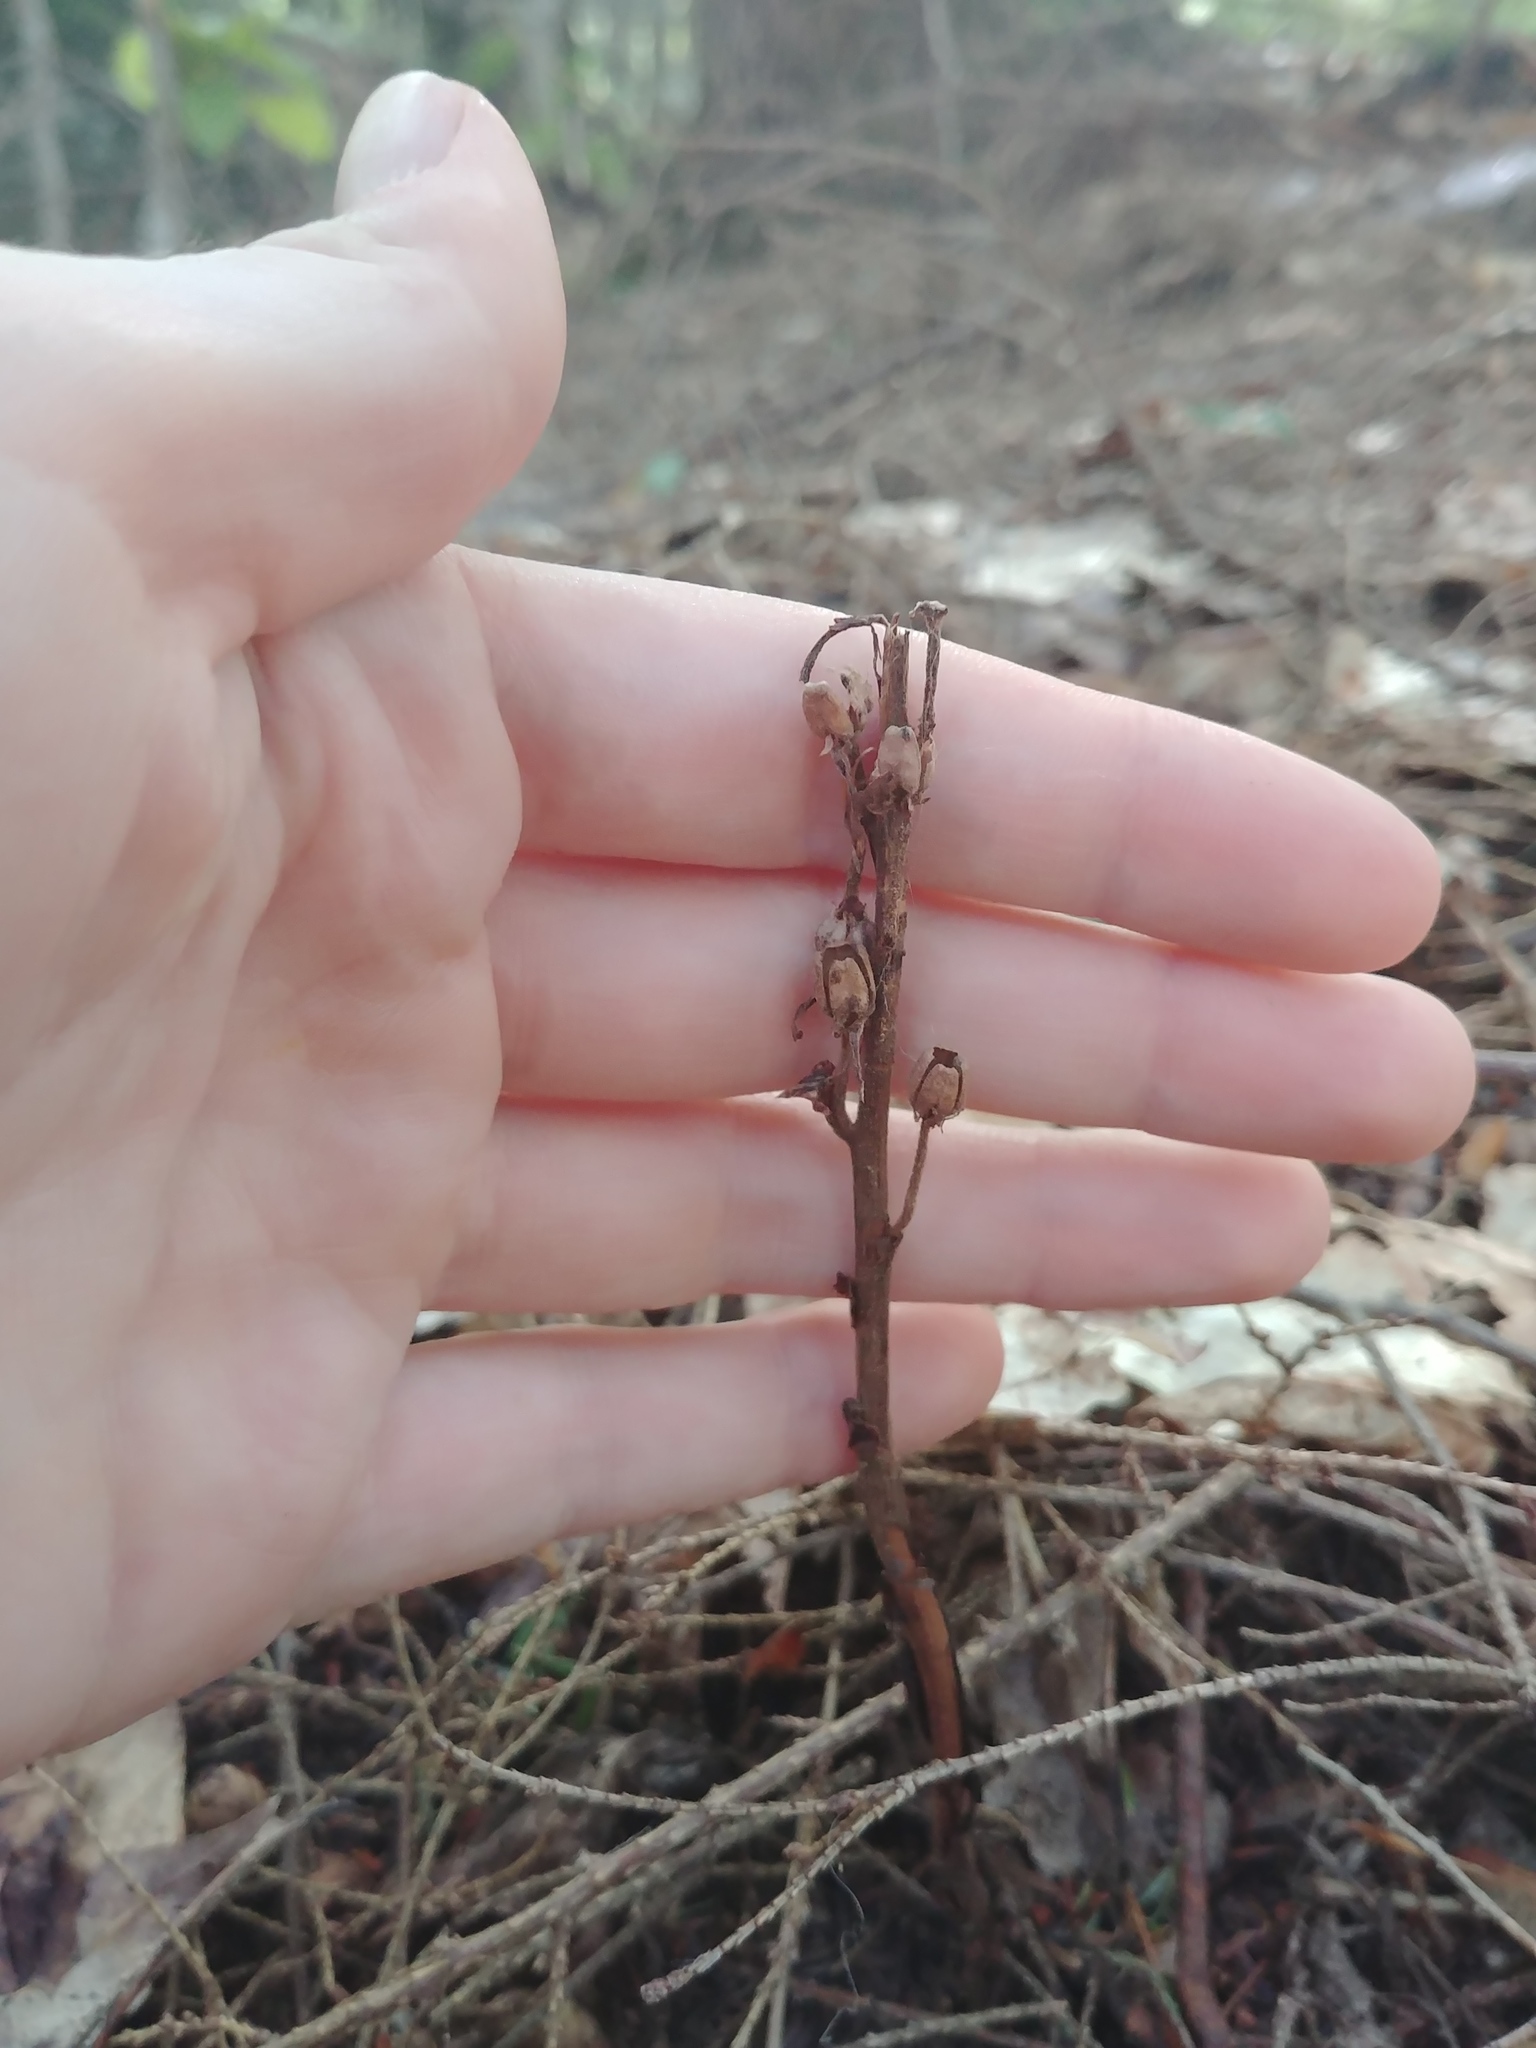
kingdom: Plantae
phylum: Tracheophyta
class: Magnoliopsida
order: Ericales
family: Ericaceae
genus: Hypopitys
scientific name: Hypopitys monotropa
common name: Yellow bird's-nest
